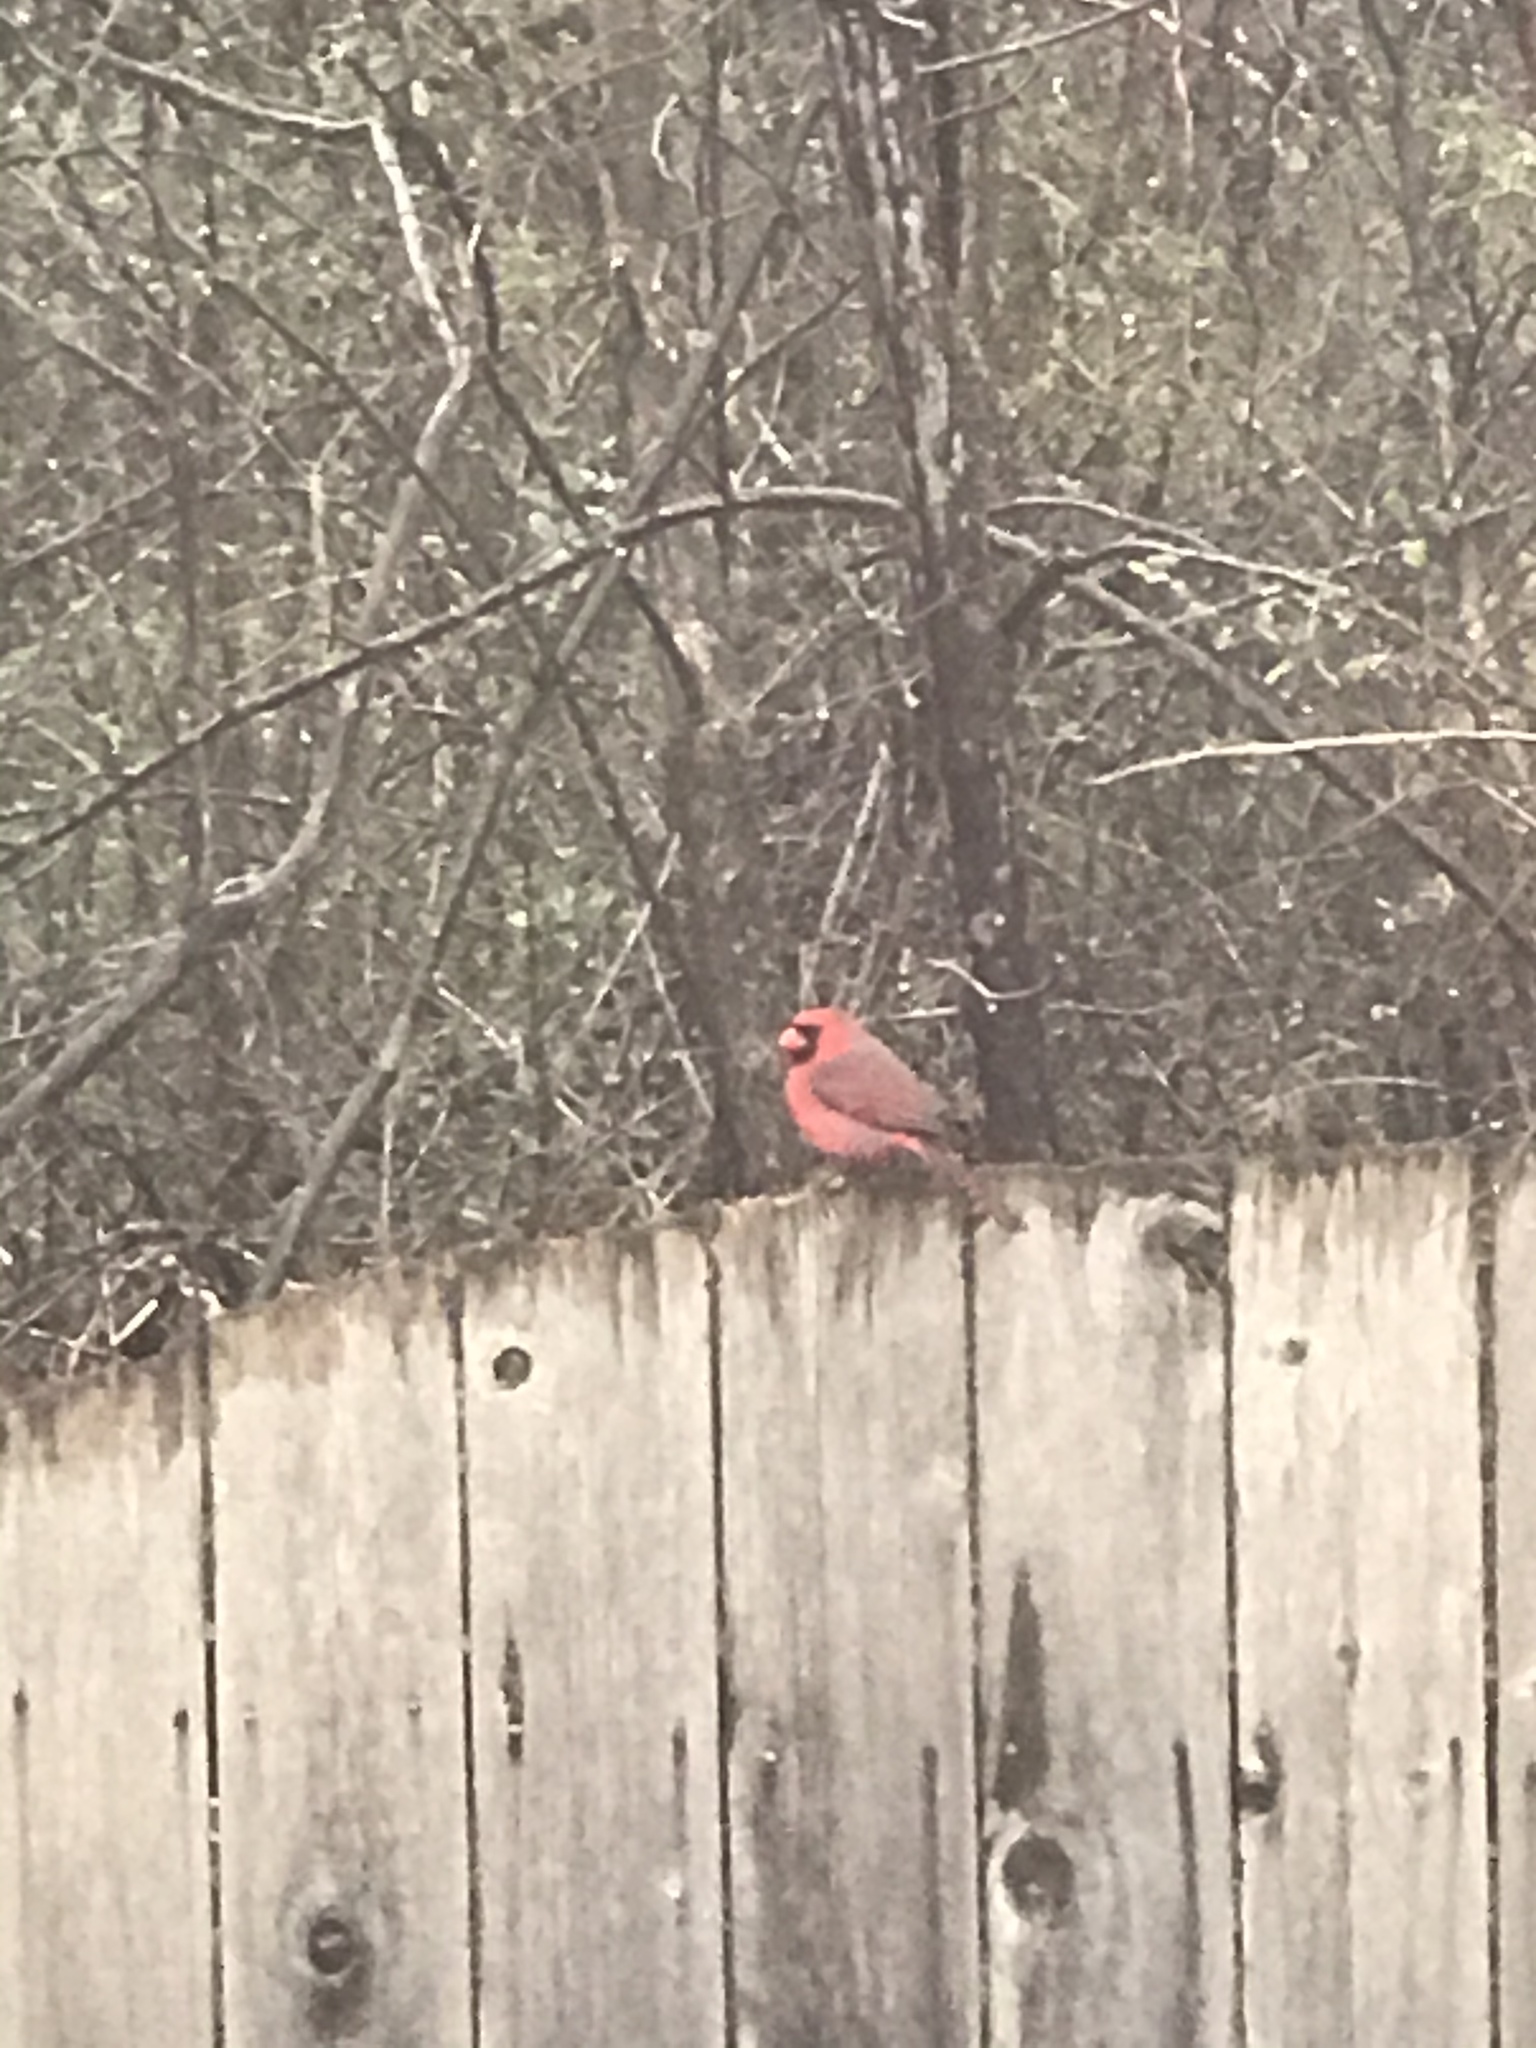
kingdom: Animalia
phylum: Chordata
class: Aves
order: Passeriformes
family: Cardinalidae
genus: Cardinalis
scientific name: Cardinalis cardinalis
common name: Northern cardinal
